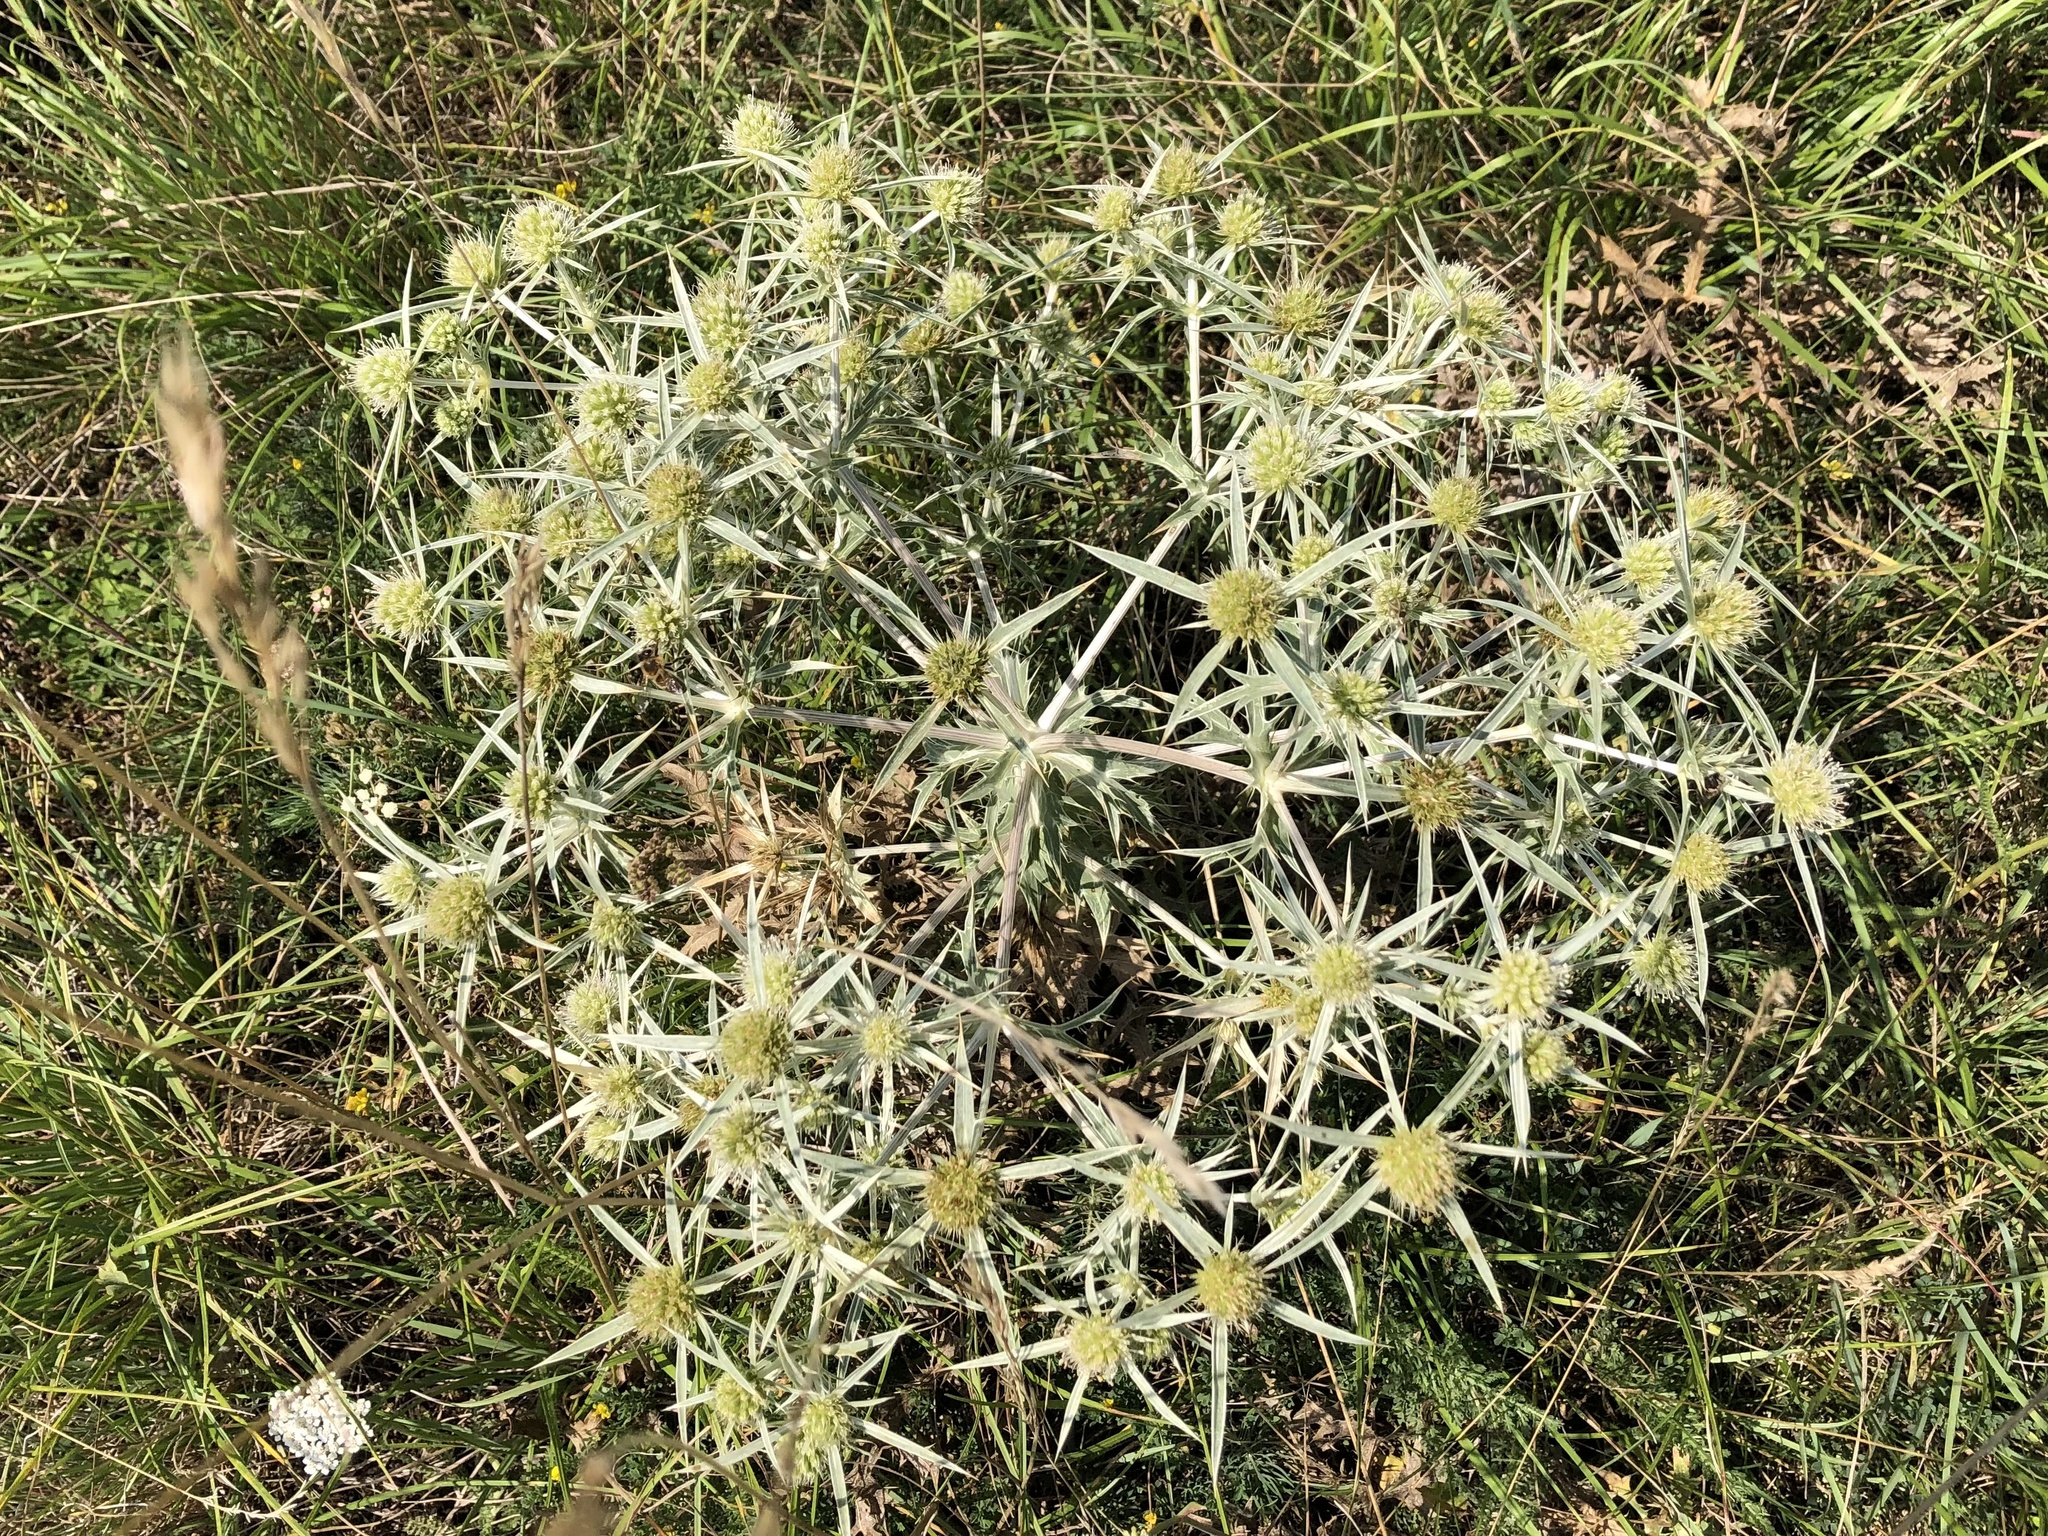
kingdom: Plantae
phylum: Tracheophyta
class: Magnoliopsida
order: Apiales
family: Apiaceae
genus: Eryngium
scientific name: Eryngium campestre
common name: Field eryngo
